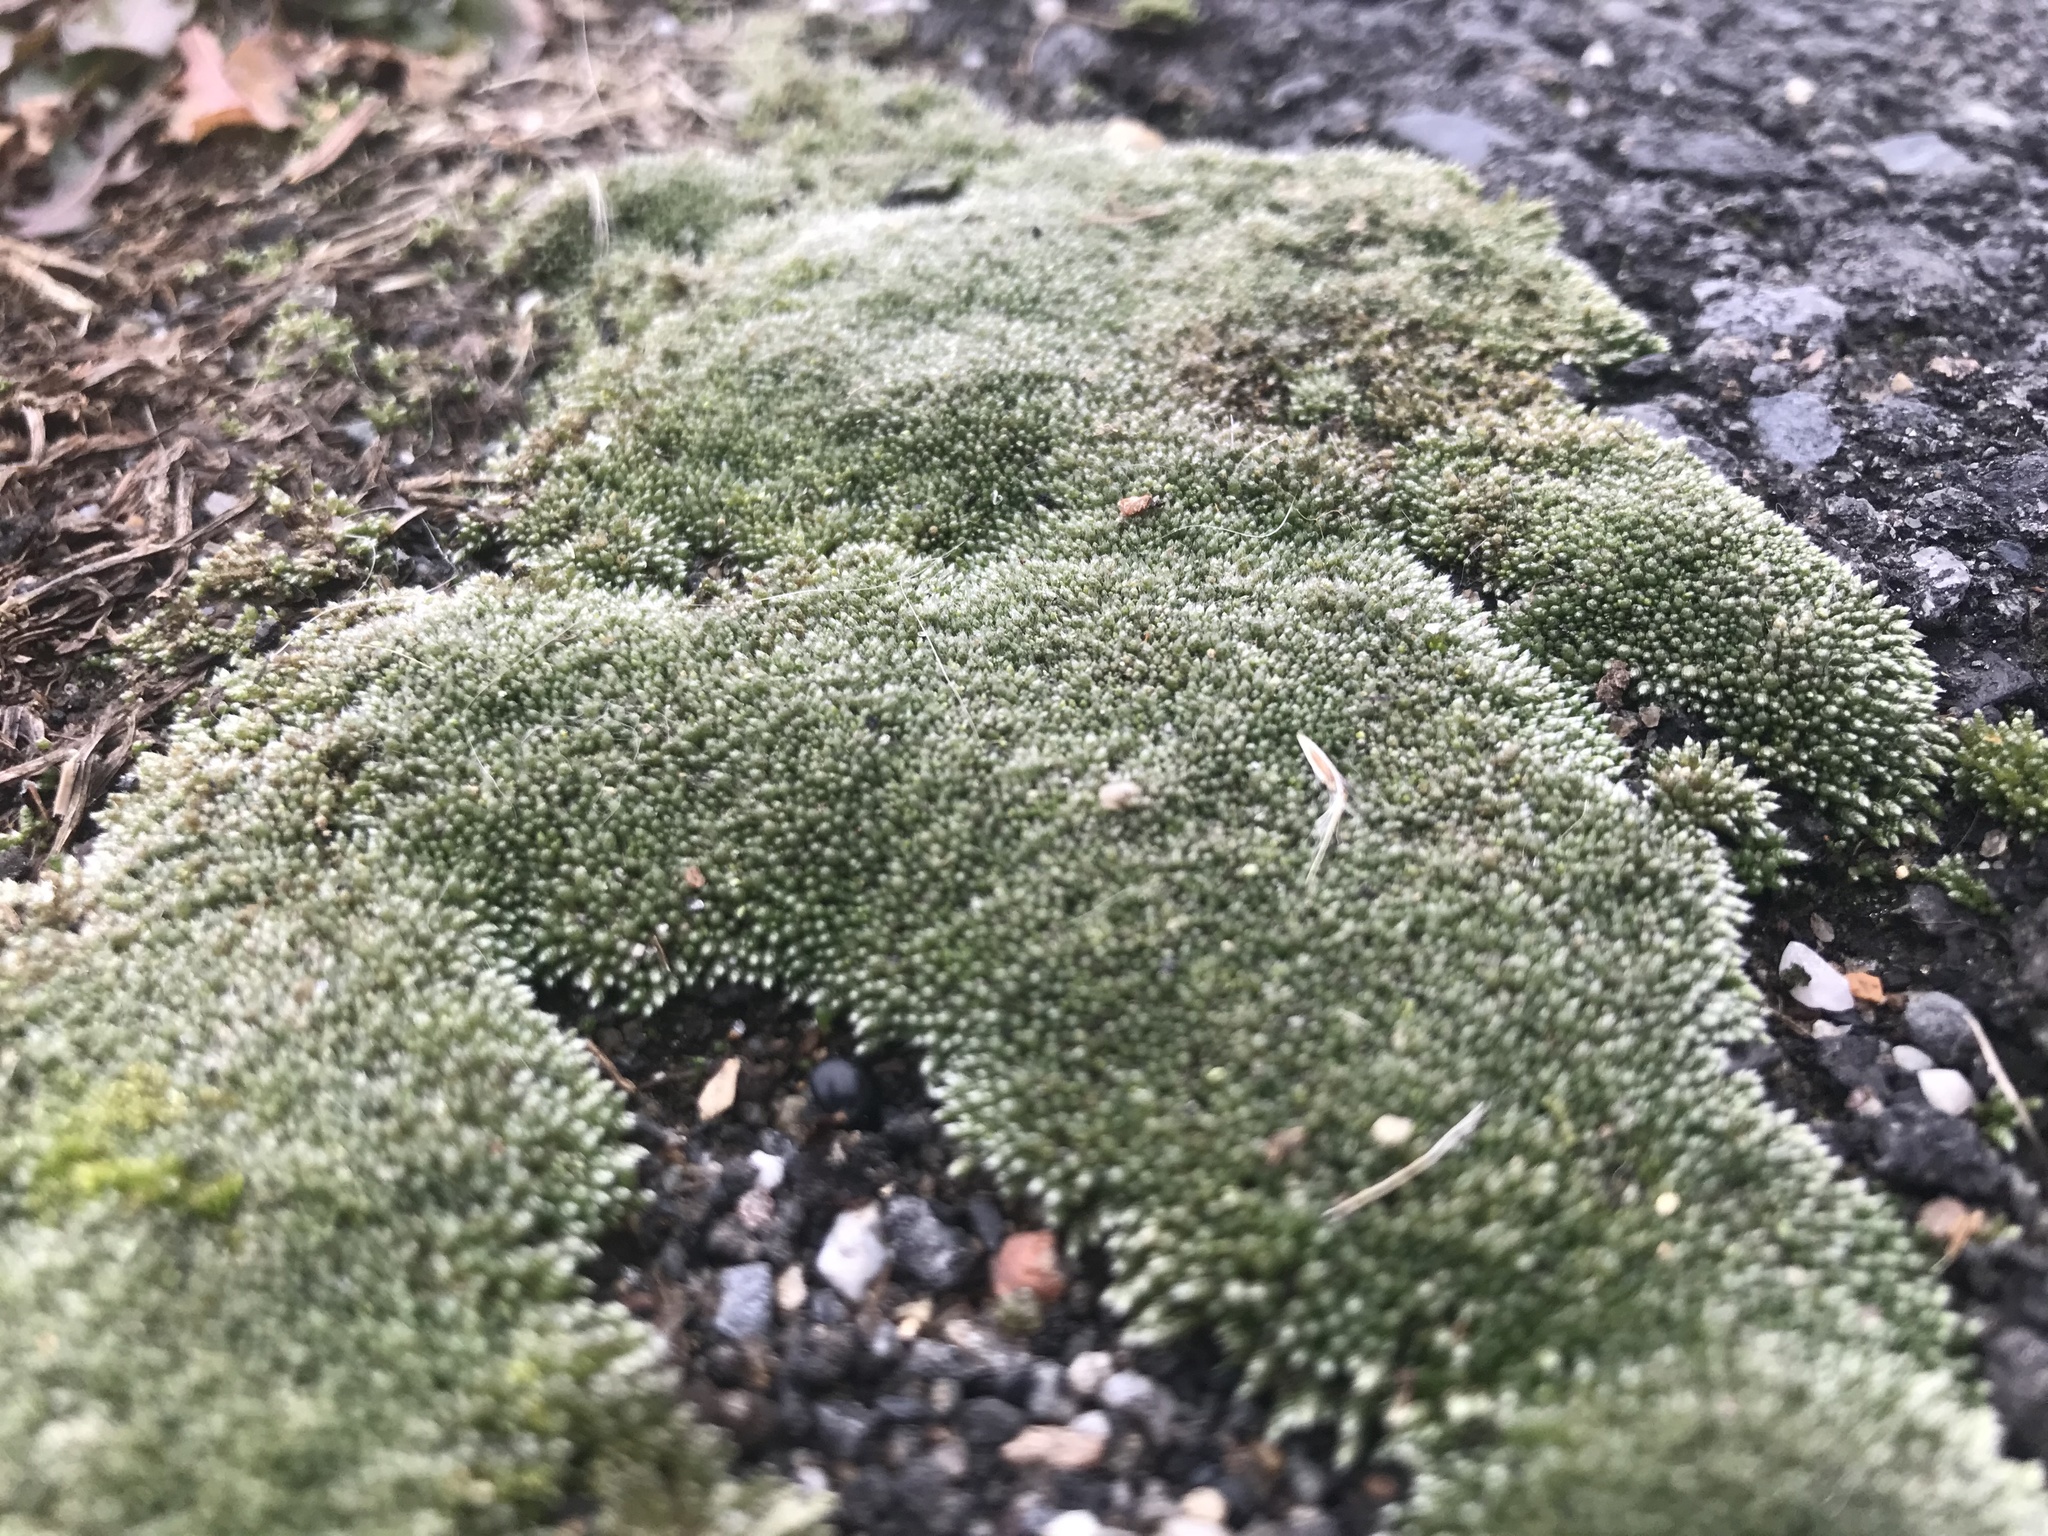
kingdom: Plantae
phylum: Bryophyta
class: Bryopsida
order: Bryales
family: Bryaceae
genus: Bryum
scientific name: Bryum argenteum
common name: Silver-moss
